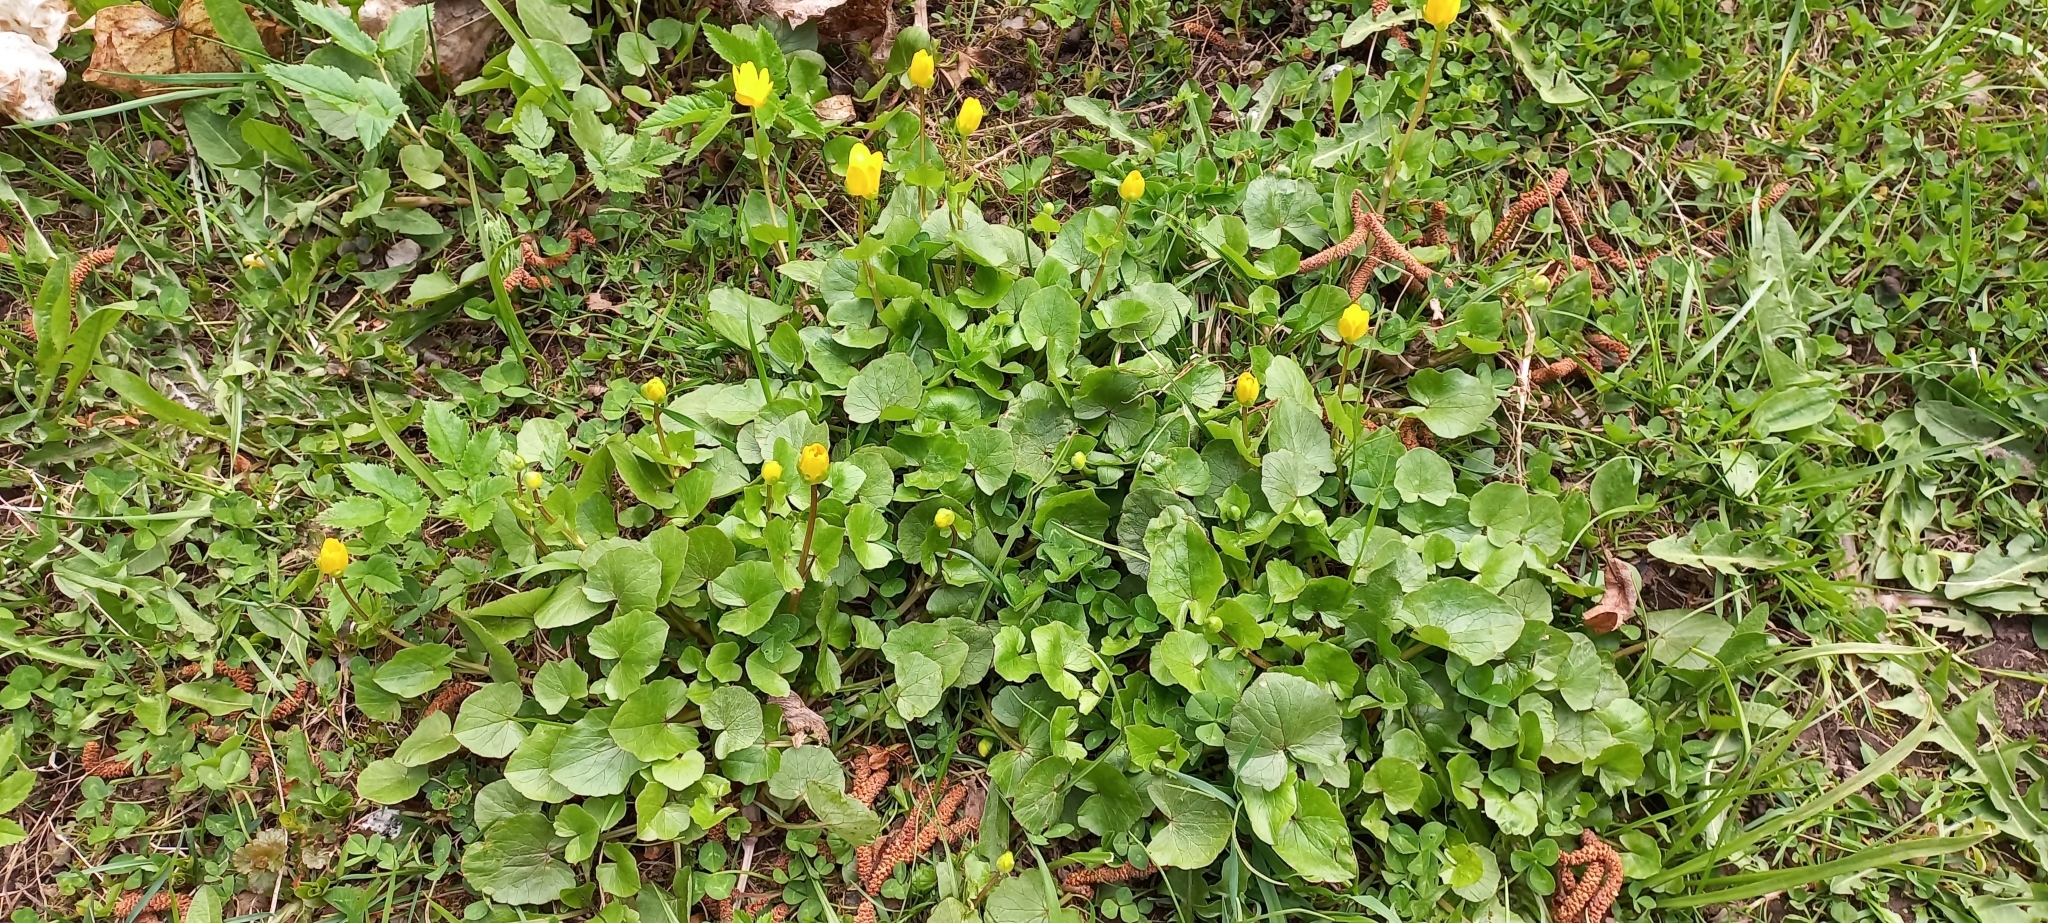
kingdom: Plantae
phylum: Tracheophyta
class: Magnoliopsida
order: Ranunculales
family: Ranunculaceae
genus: Ficaria
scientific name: Ficaria verna
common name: Lesser celandine
